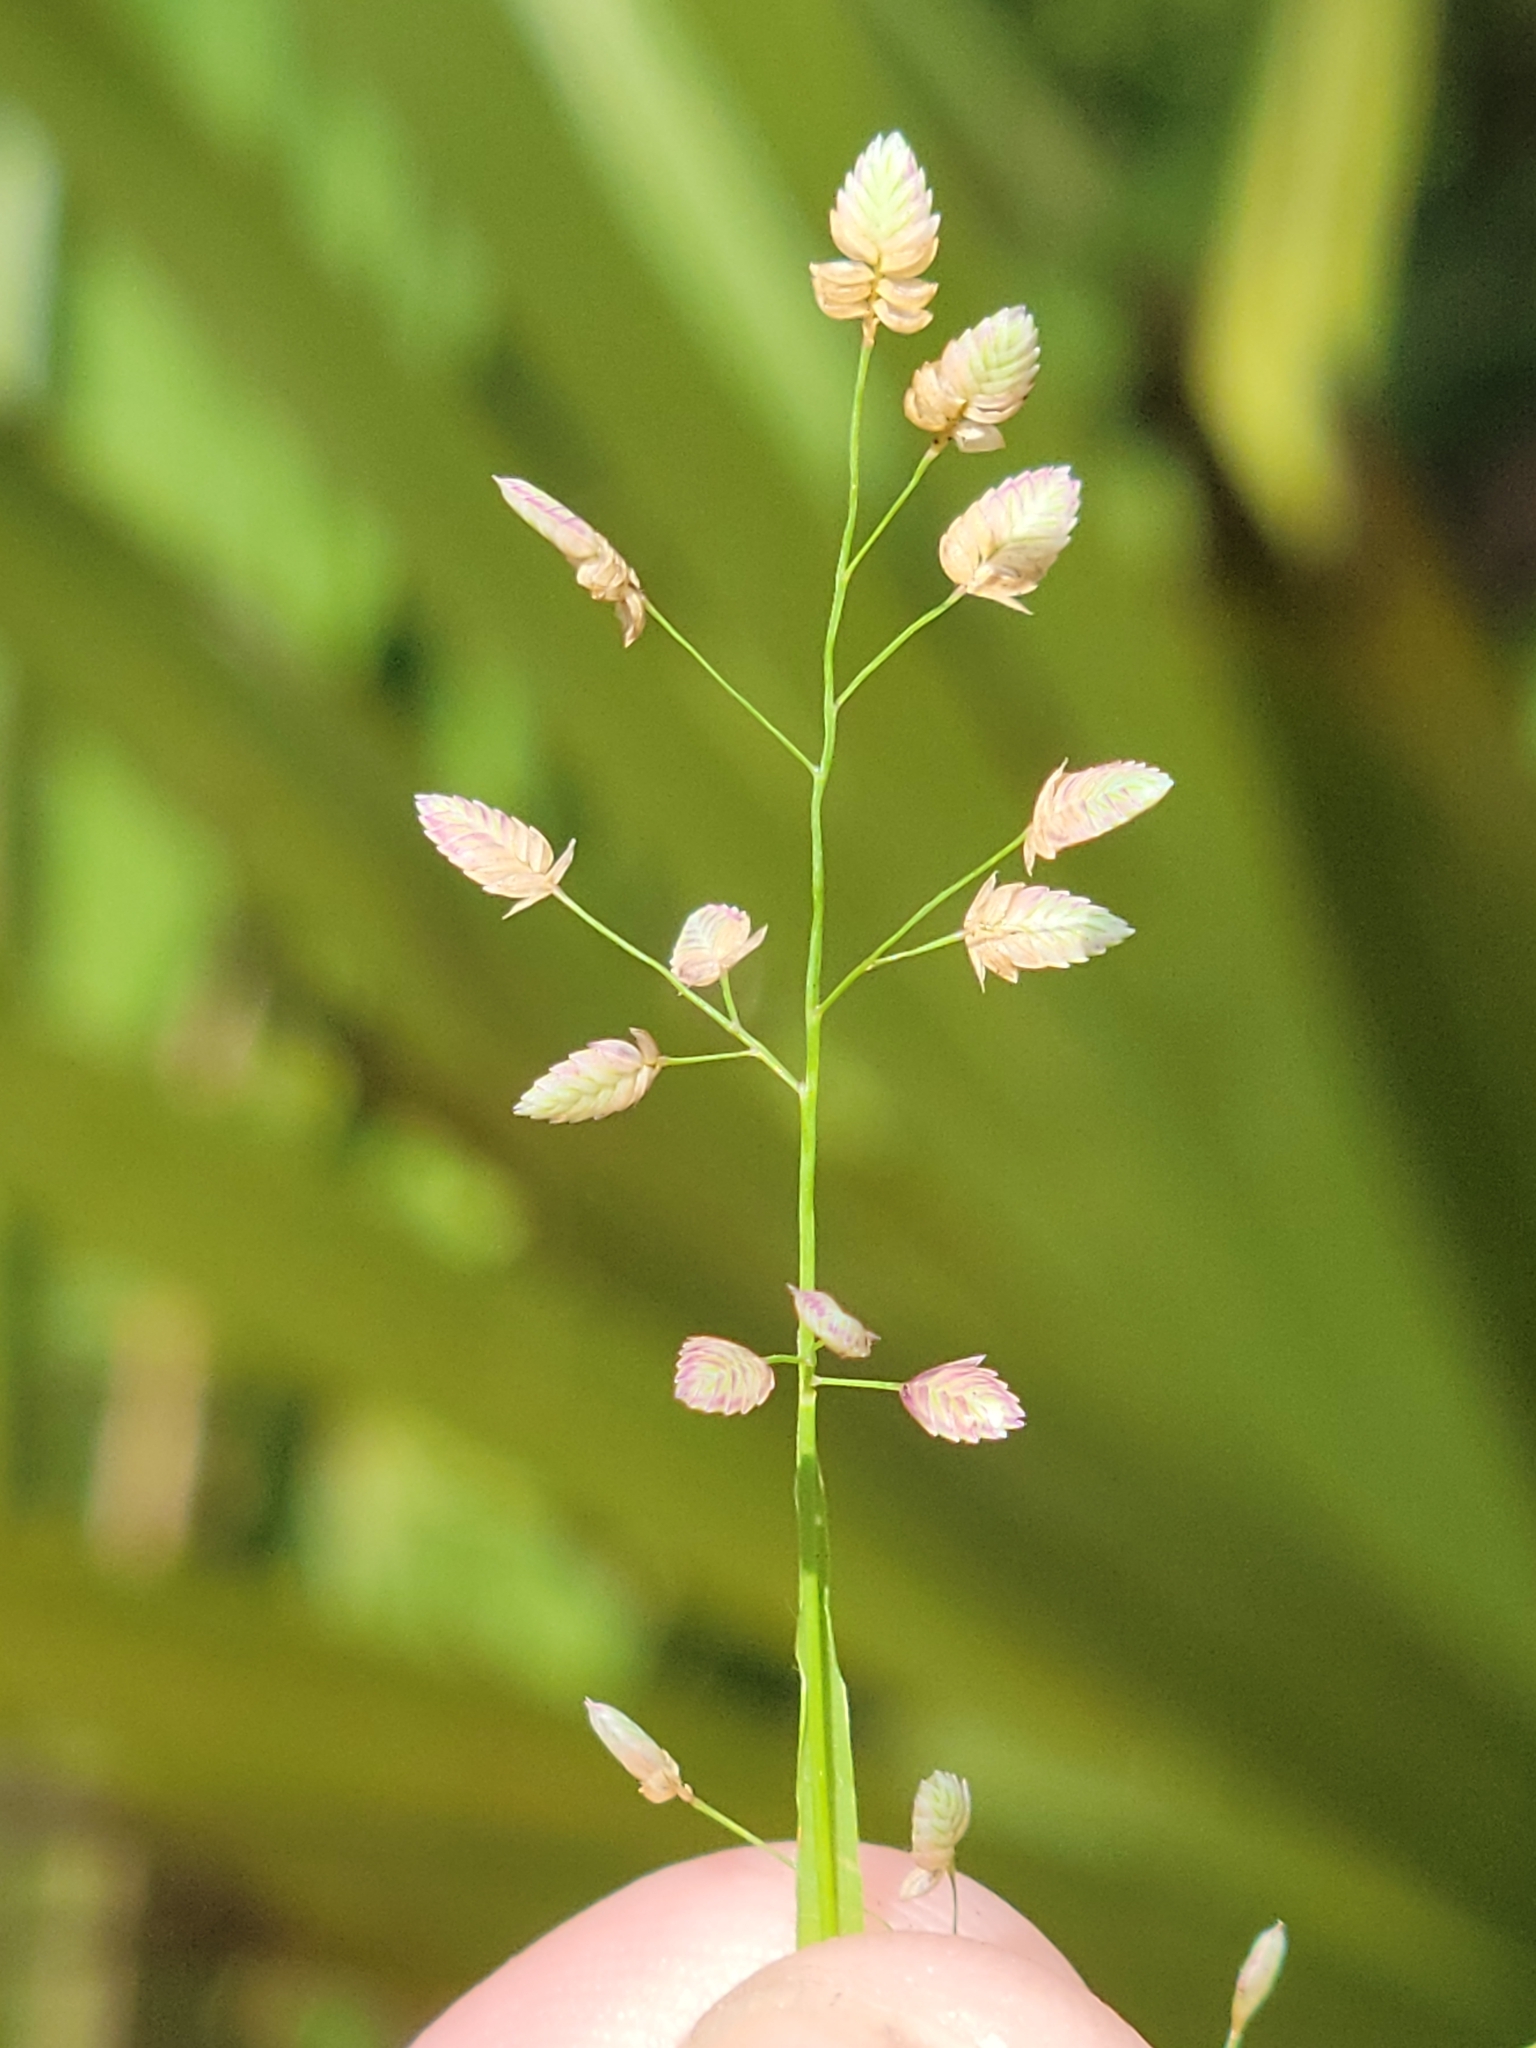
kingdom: Plantae
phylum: Tracheophyta
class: Liliopsida
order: Poales
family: Poaceae
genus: Eragrostis
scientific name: Eragrostis unioloides
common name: Chinese lovegrass
